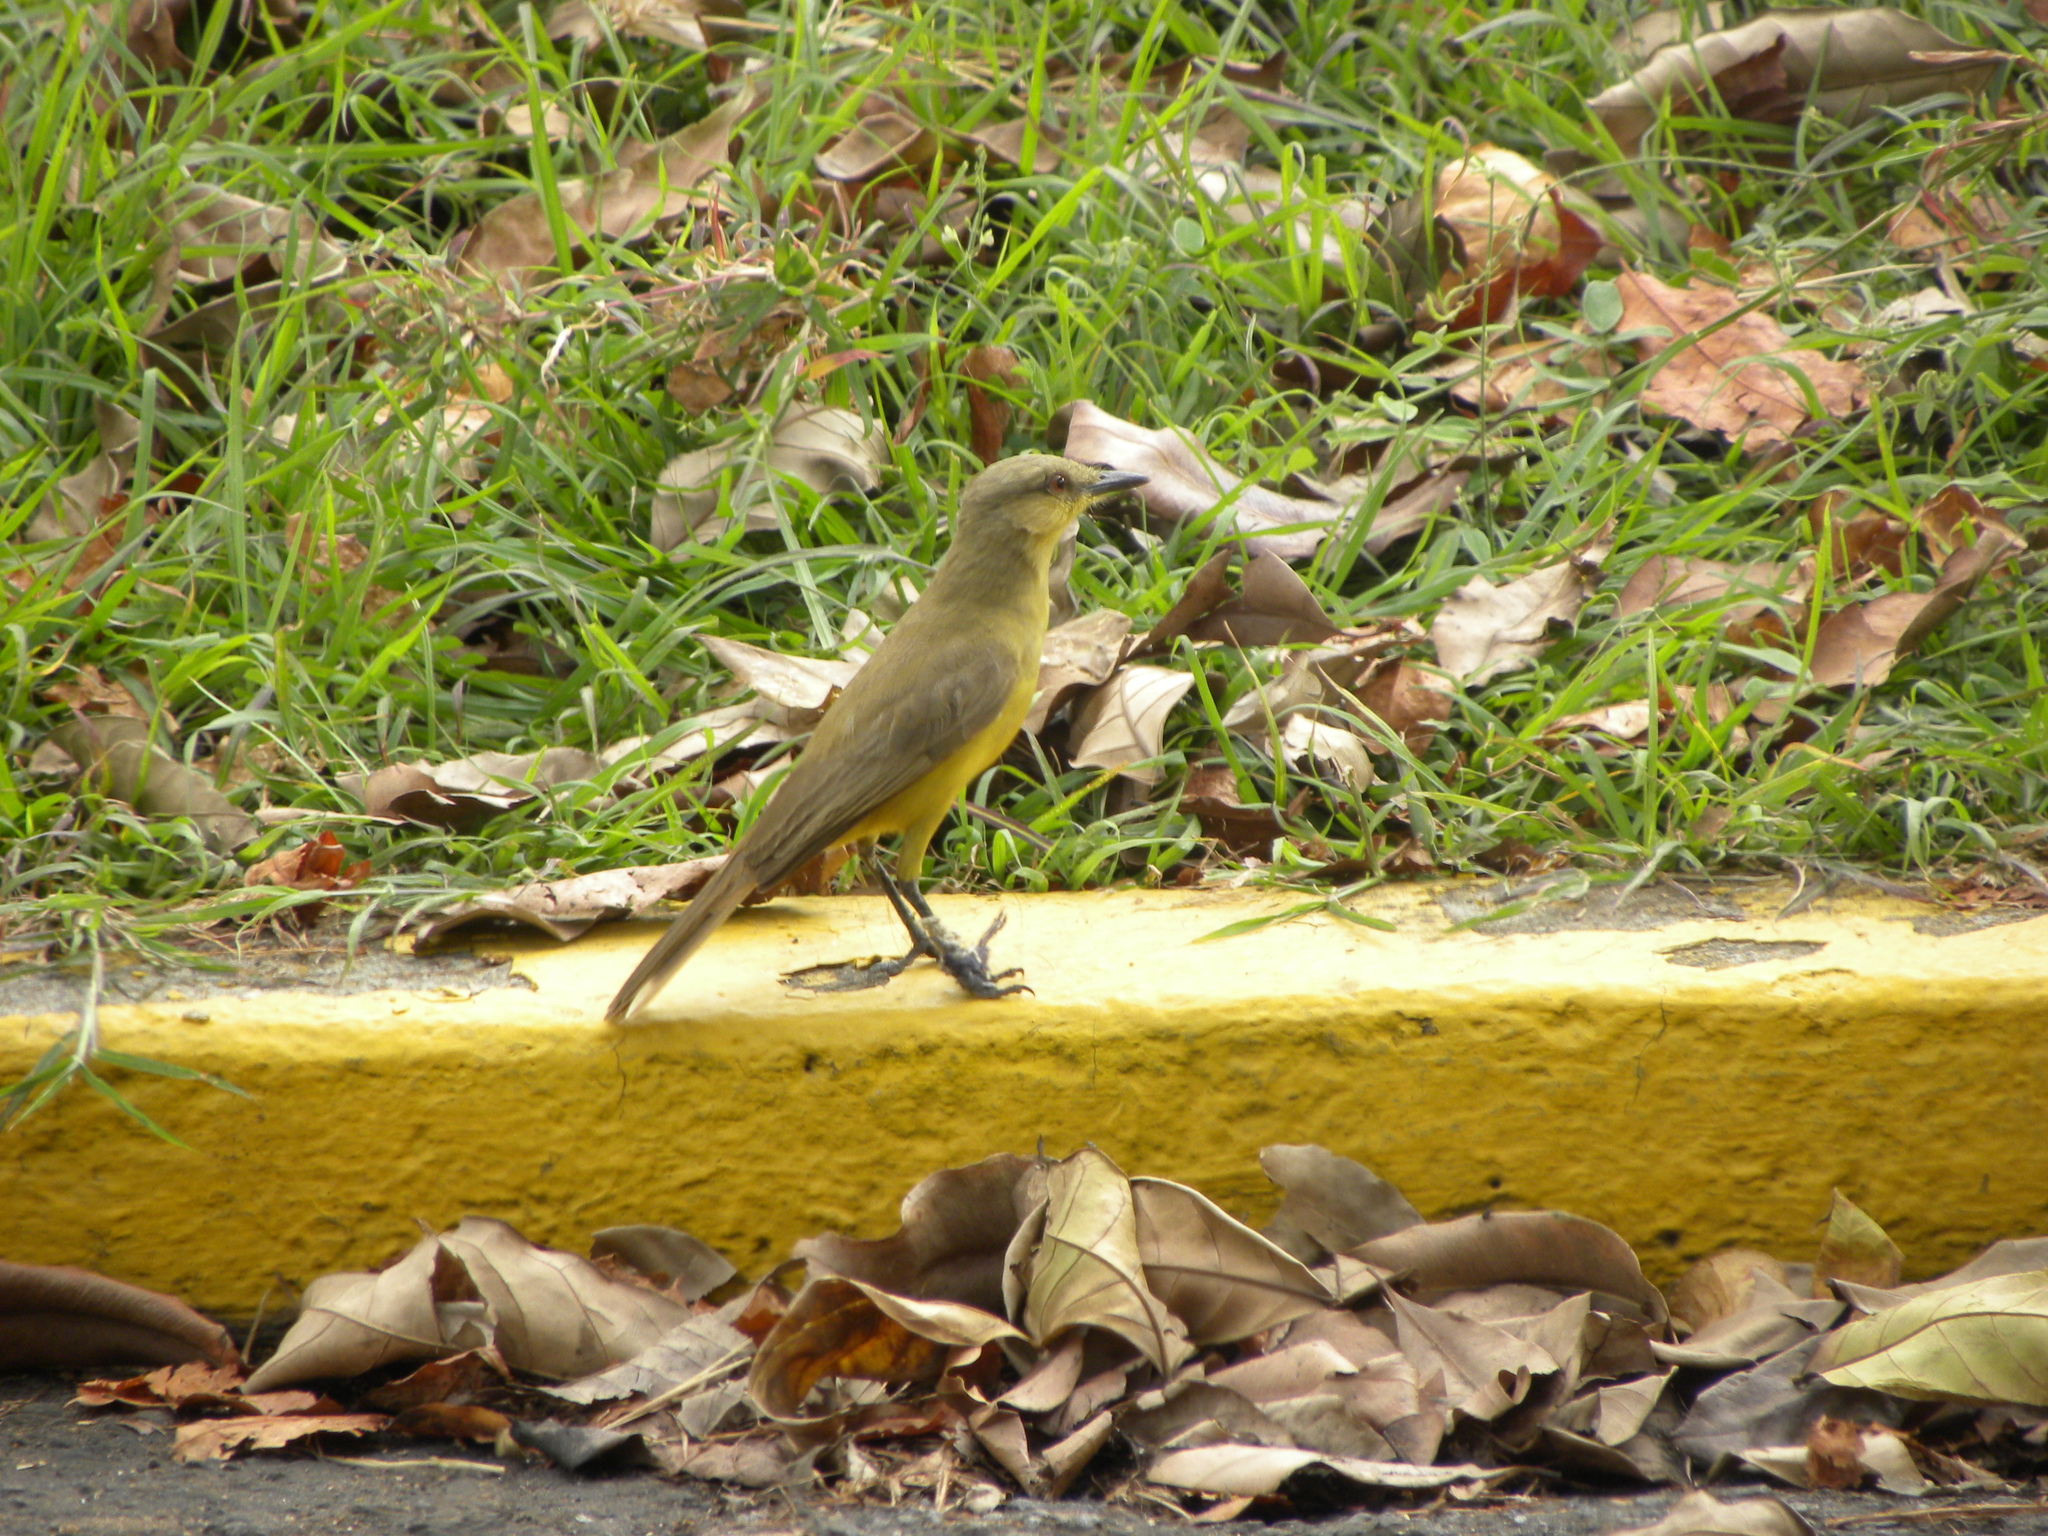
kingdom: Animalia
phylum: Chordata
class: Aves
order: Passeriformes
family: Tyrannidae
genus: Machetornis
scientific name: Machetornis rixosa
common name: Cattle tyrant
